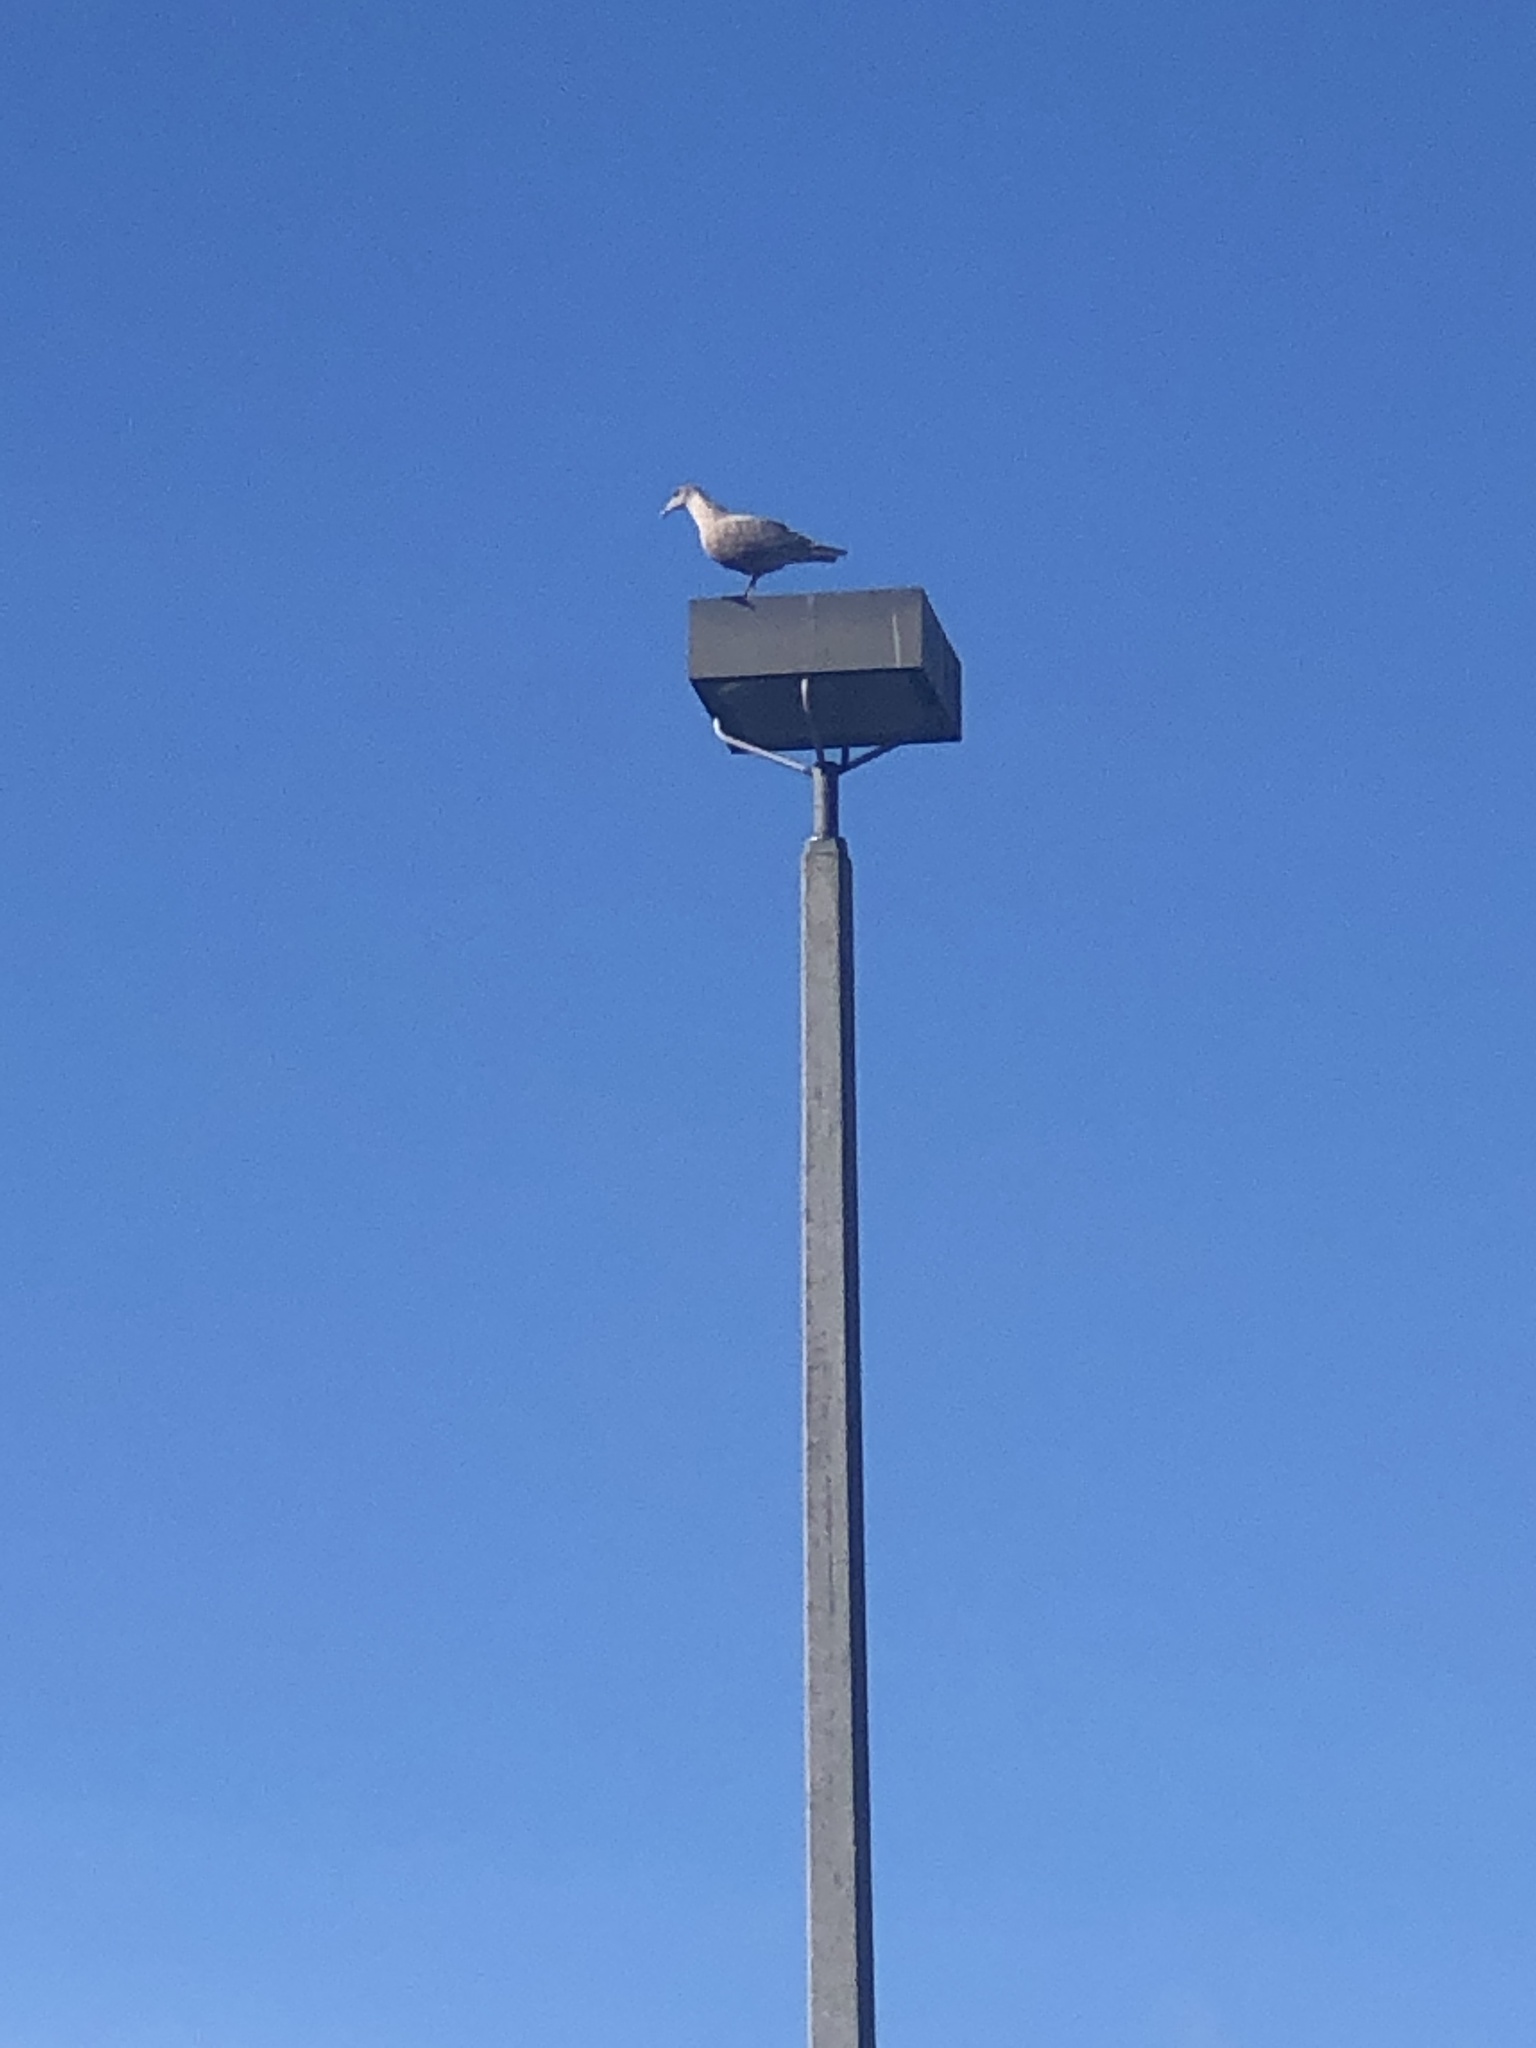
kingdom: Animalia
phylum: Chordata
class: Aves
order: Charadriiformes
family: Laridae
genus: Larus
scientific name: Larus
